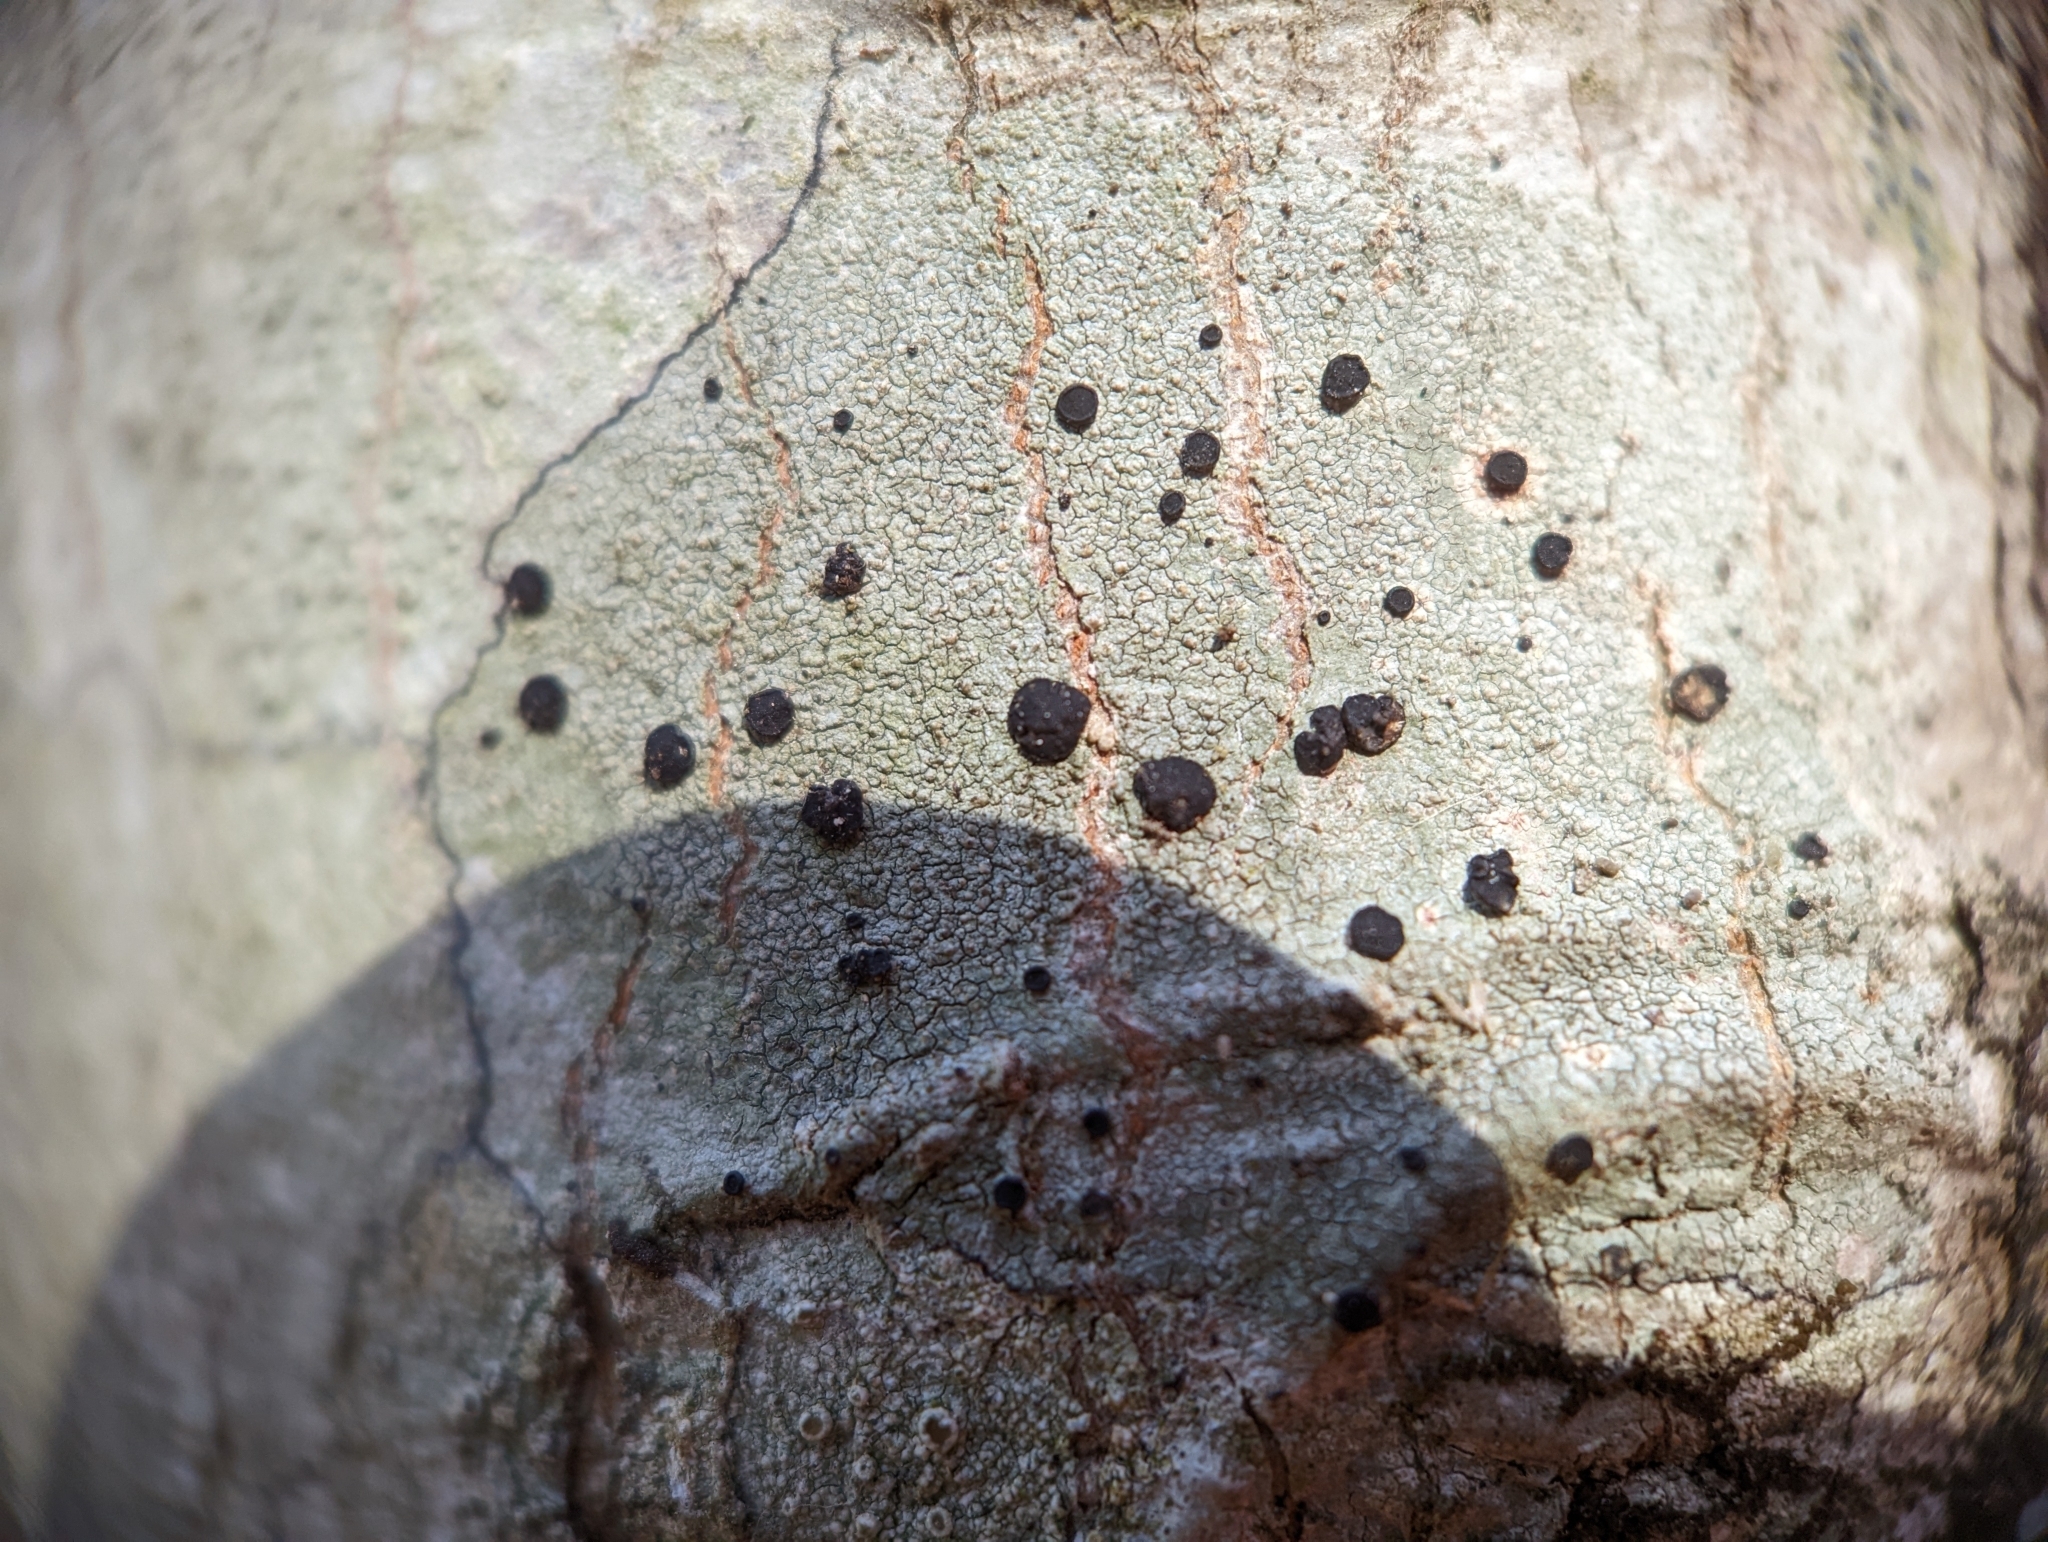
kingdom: Fungi
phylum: Ascomycota
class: Lecanoromycetes
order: Caliciales
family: Caliciaceae
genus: Buellia
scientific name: Buellia erubescens
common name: Common button lichen
